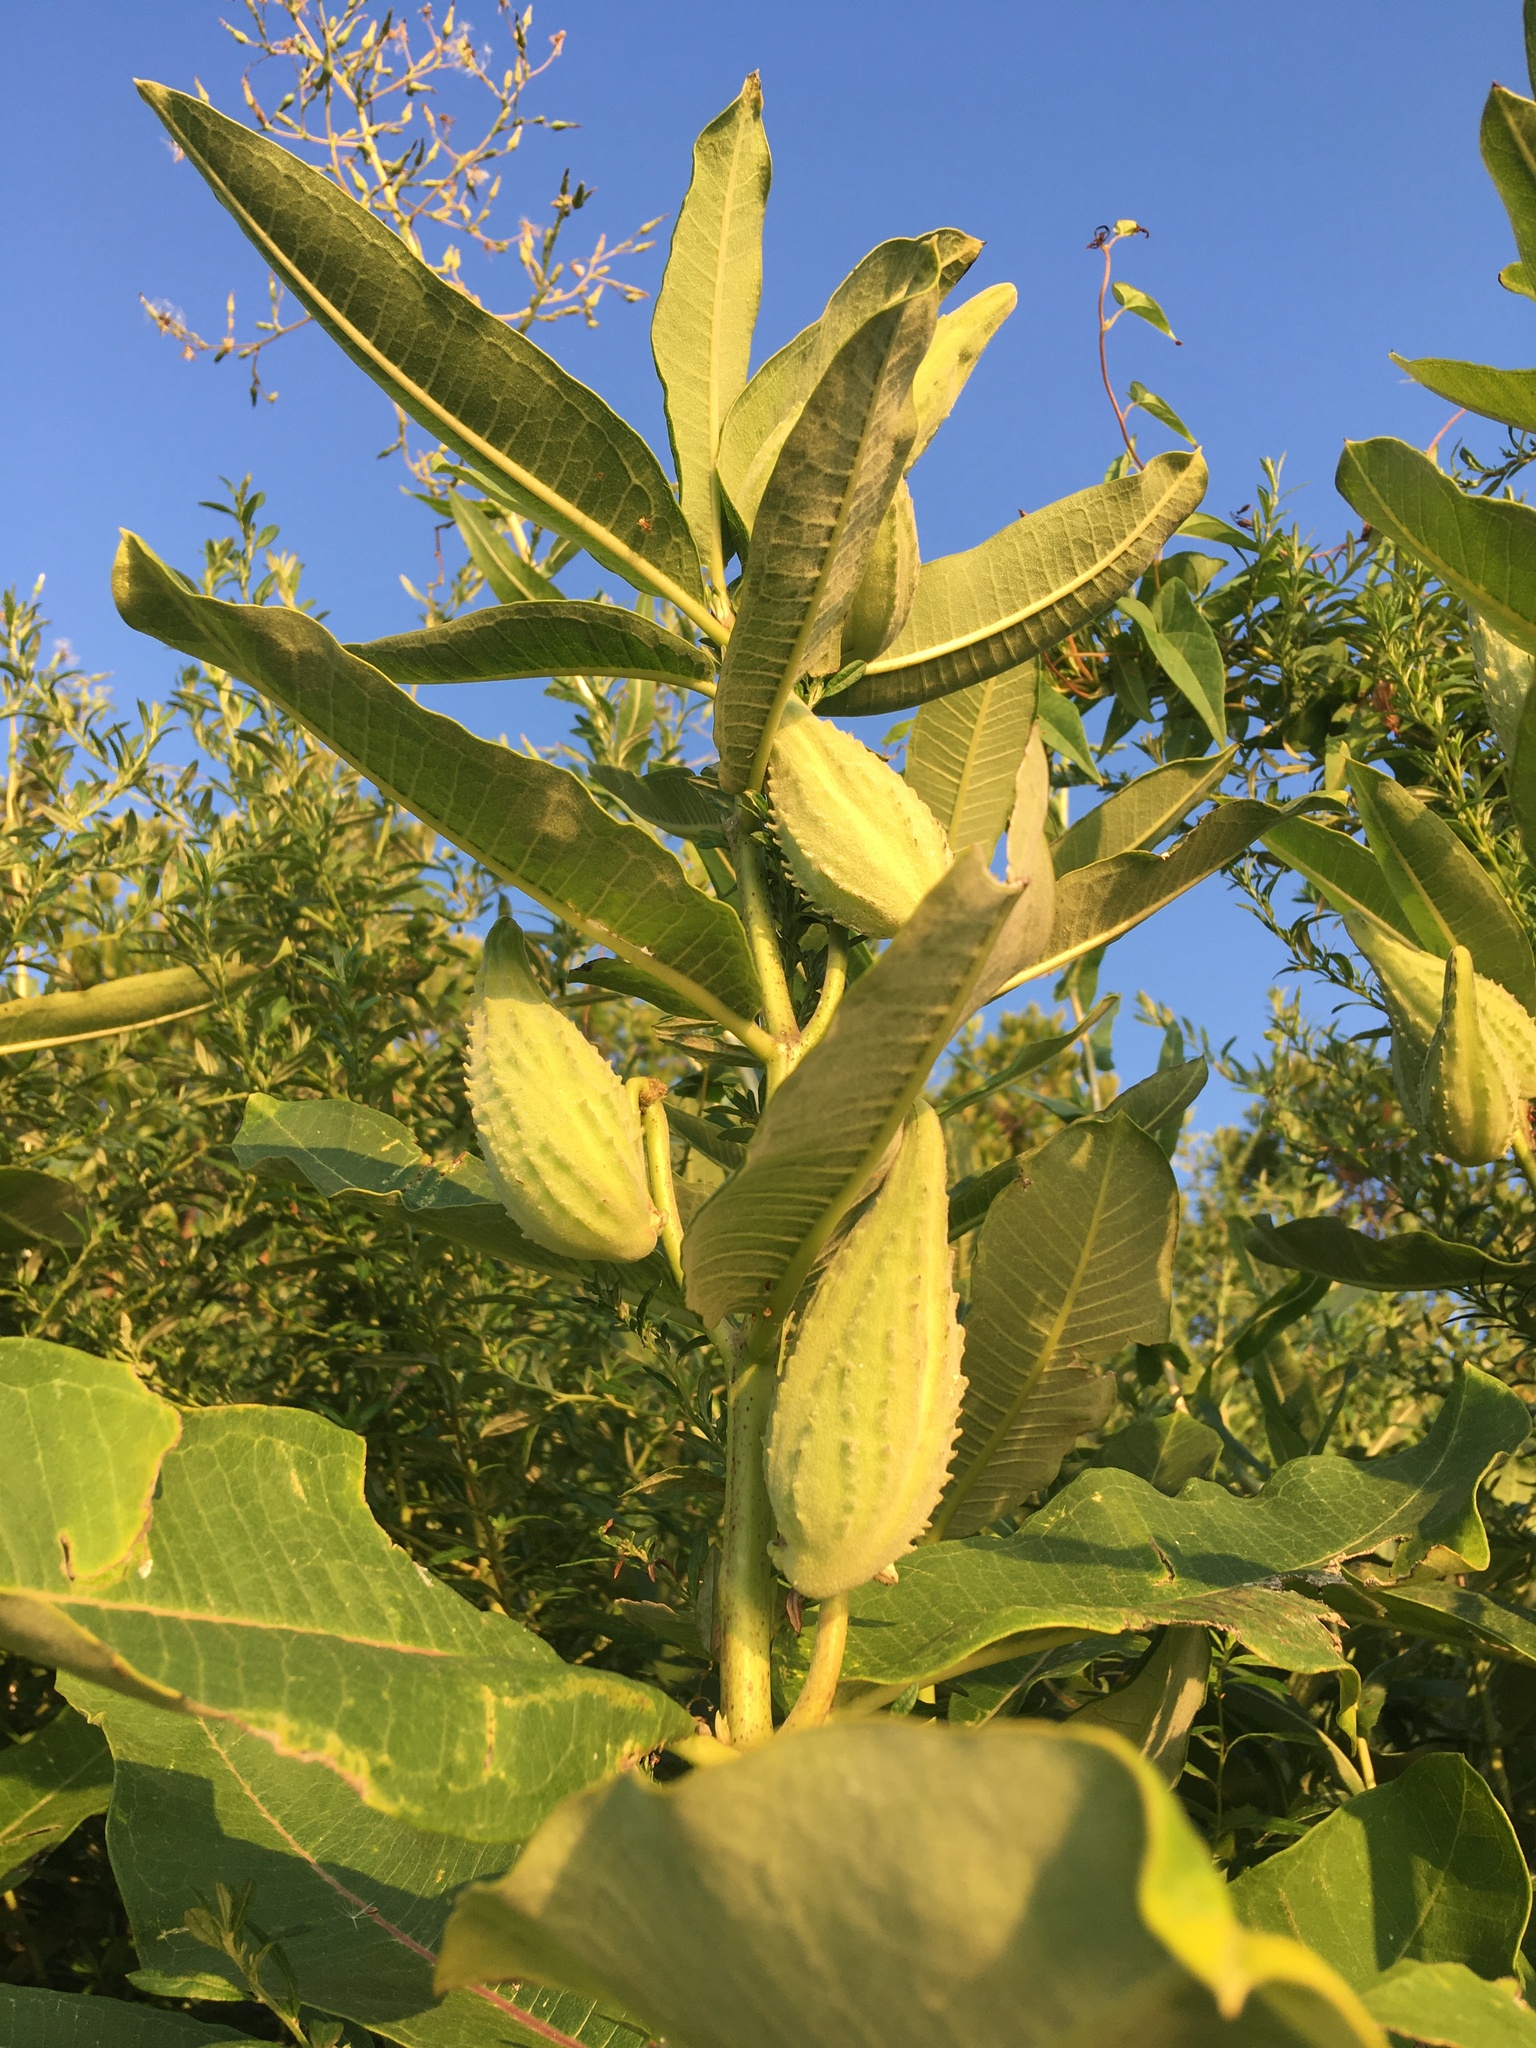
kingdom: Plantae
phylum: Tracheophyta
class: Magnoliopsida
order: Gentianales
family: Apocynaceae
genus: Asclepias
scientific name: Asclepias syriaca
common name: Common milkweed
